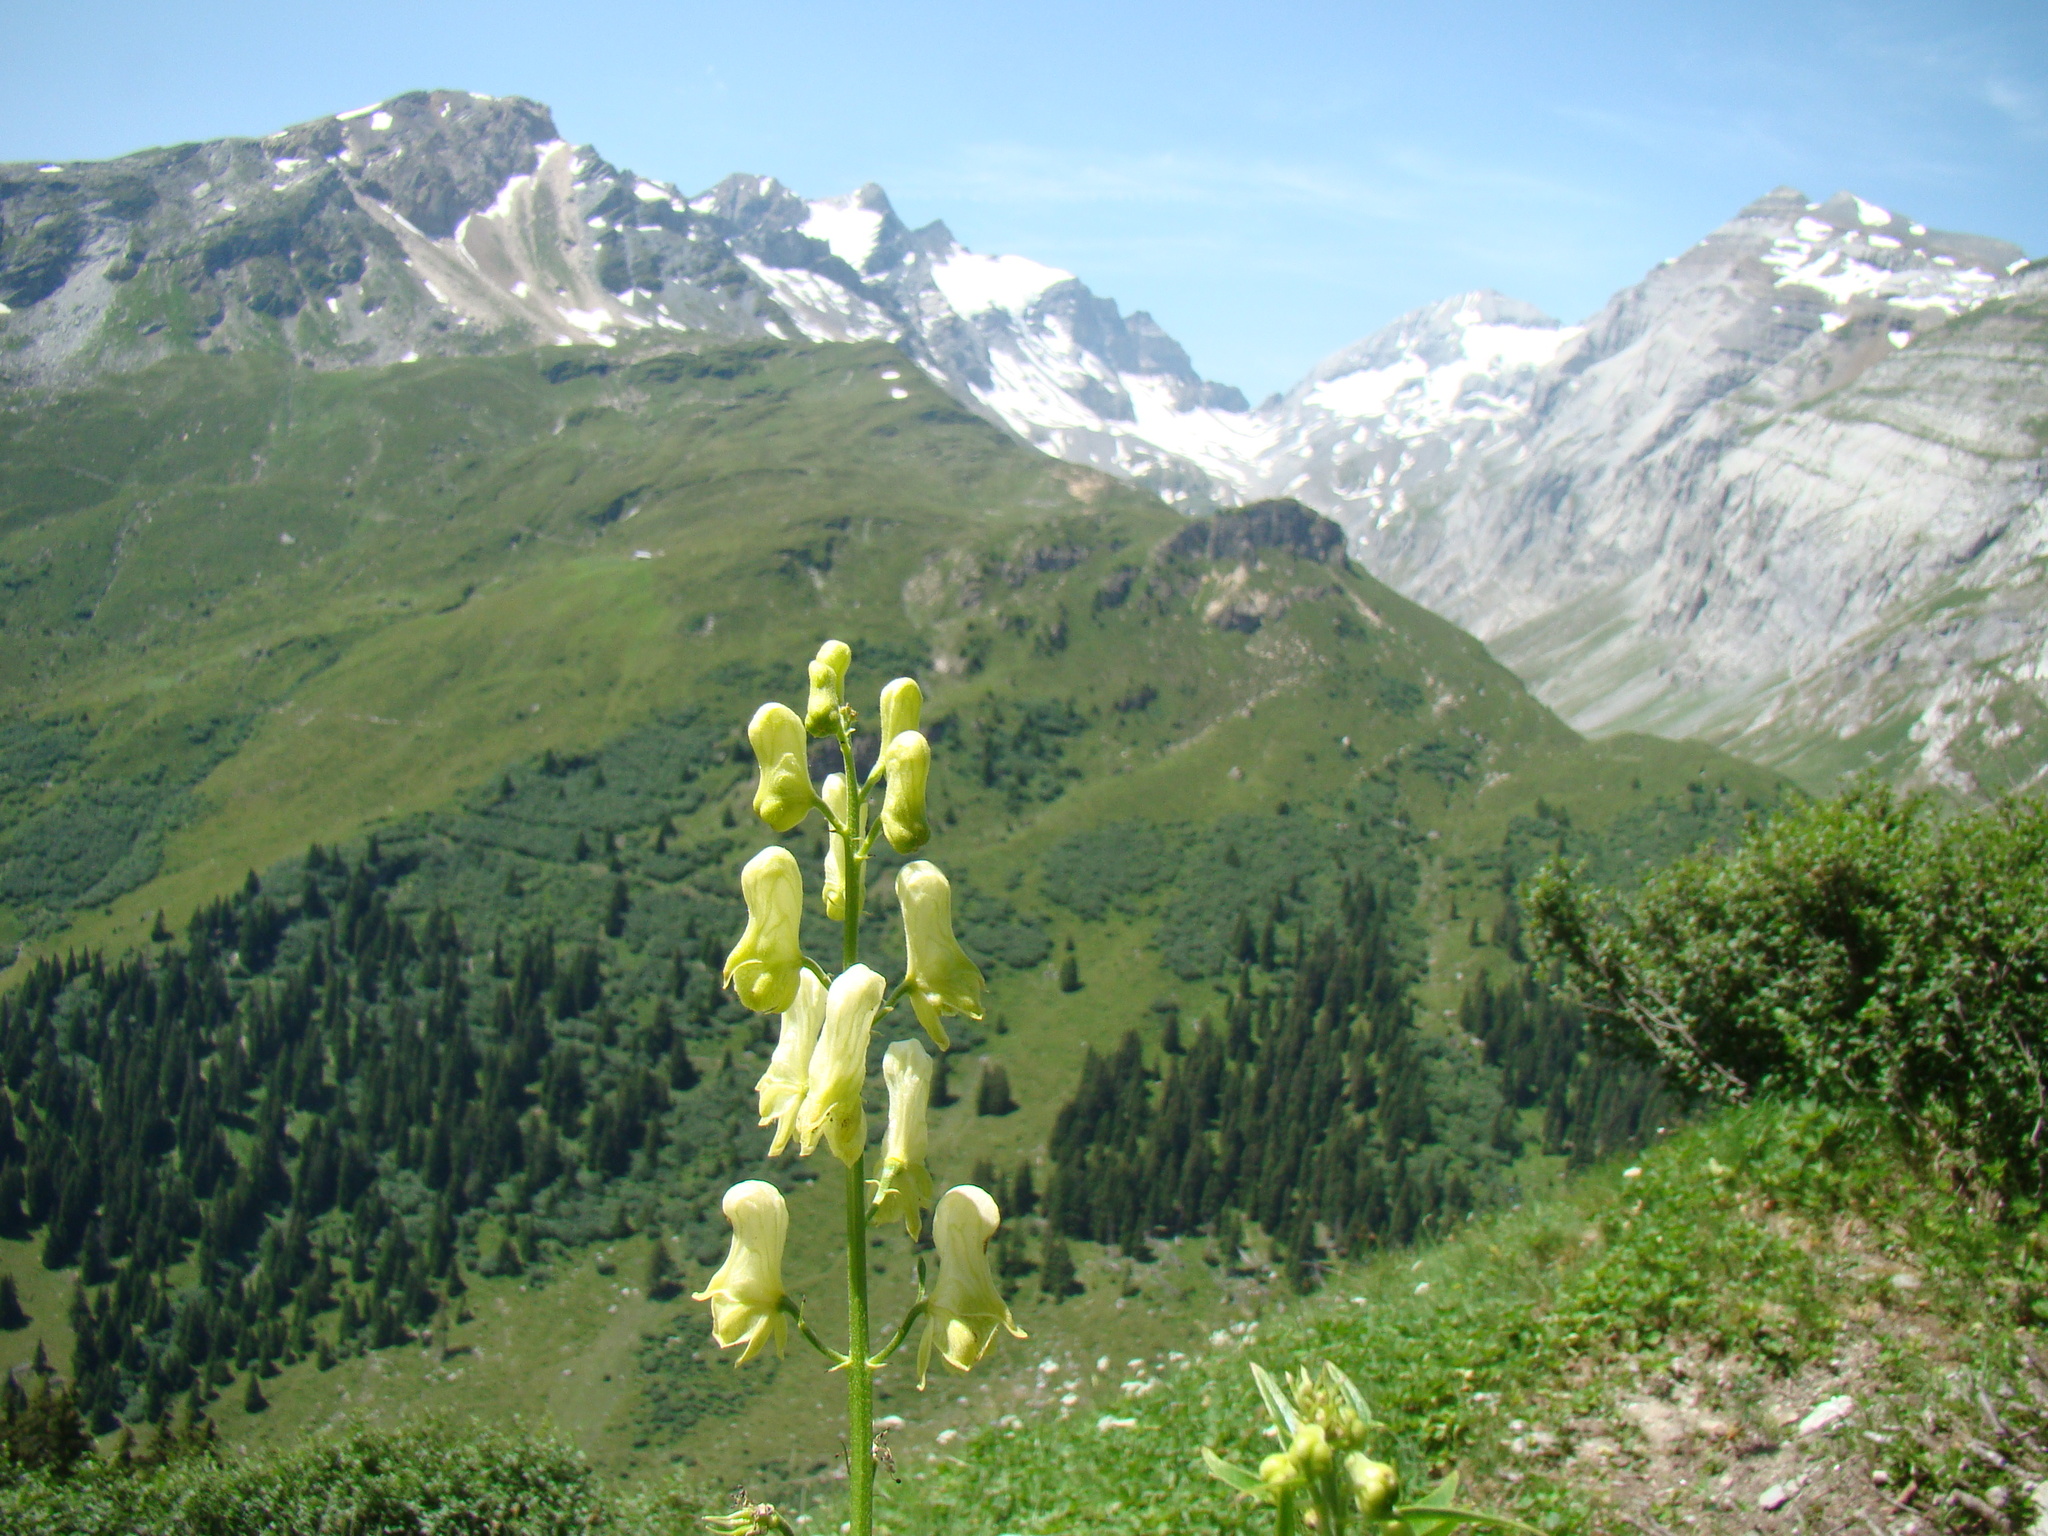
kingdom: Plantae
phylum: Tracheophyta
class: Magnoliopsida
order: Ranunculales
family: Ranunculaceae
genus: Aconitum
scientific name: Aconitum lycoctonum
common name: Wolf's-bane
